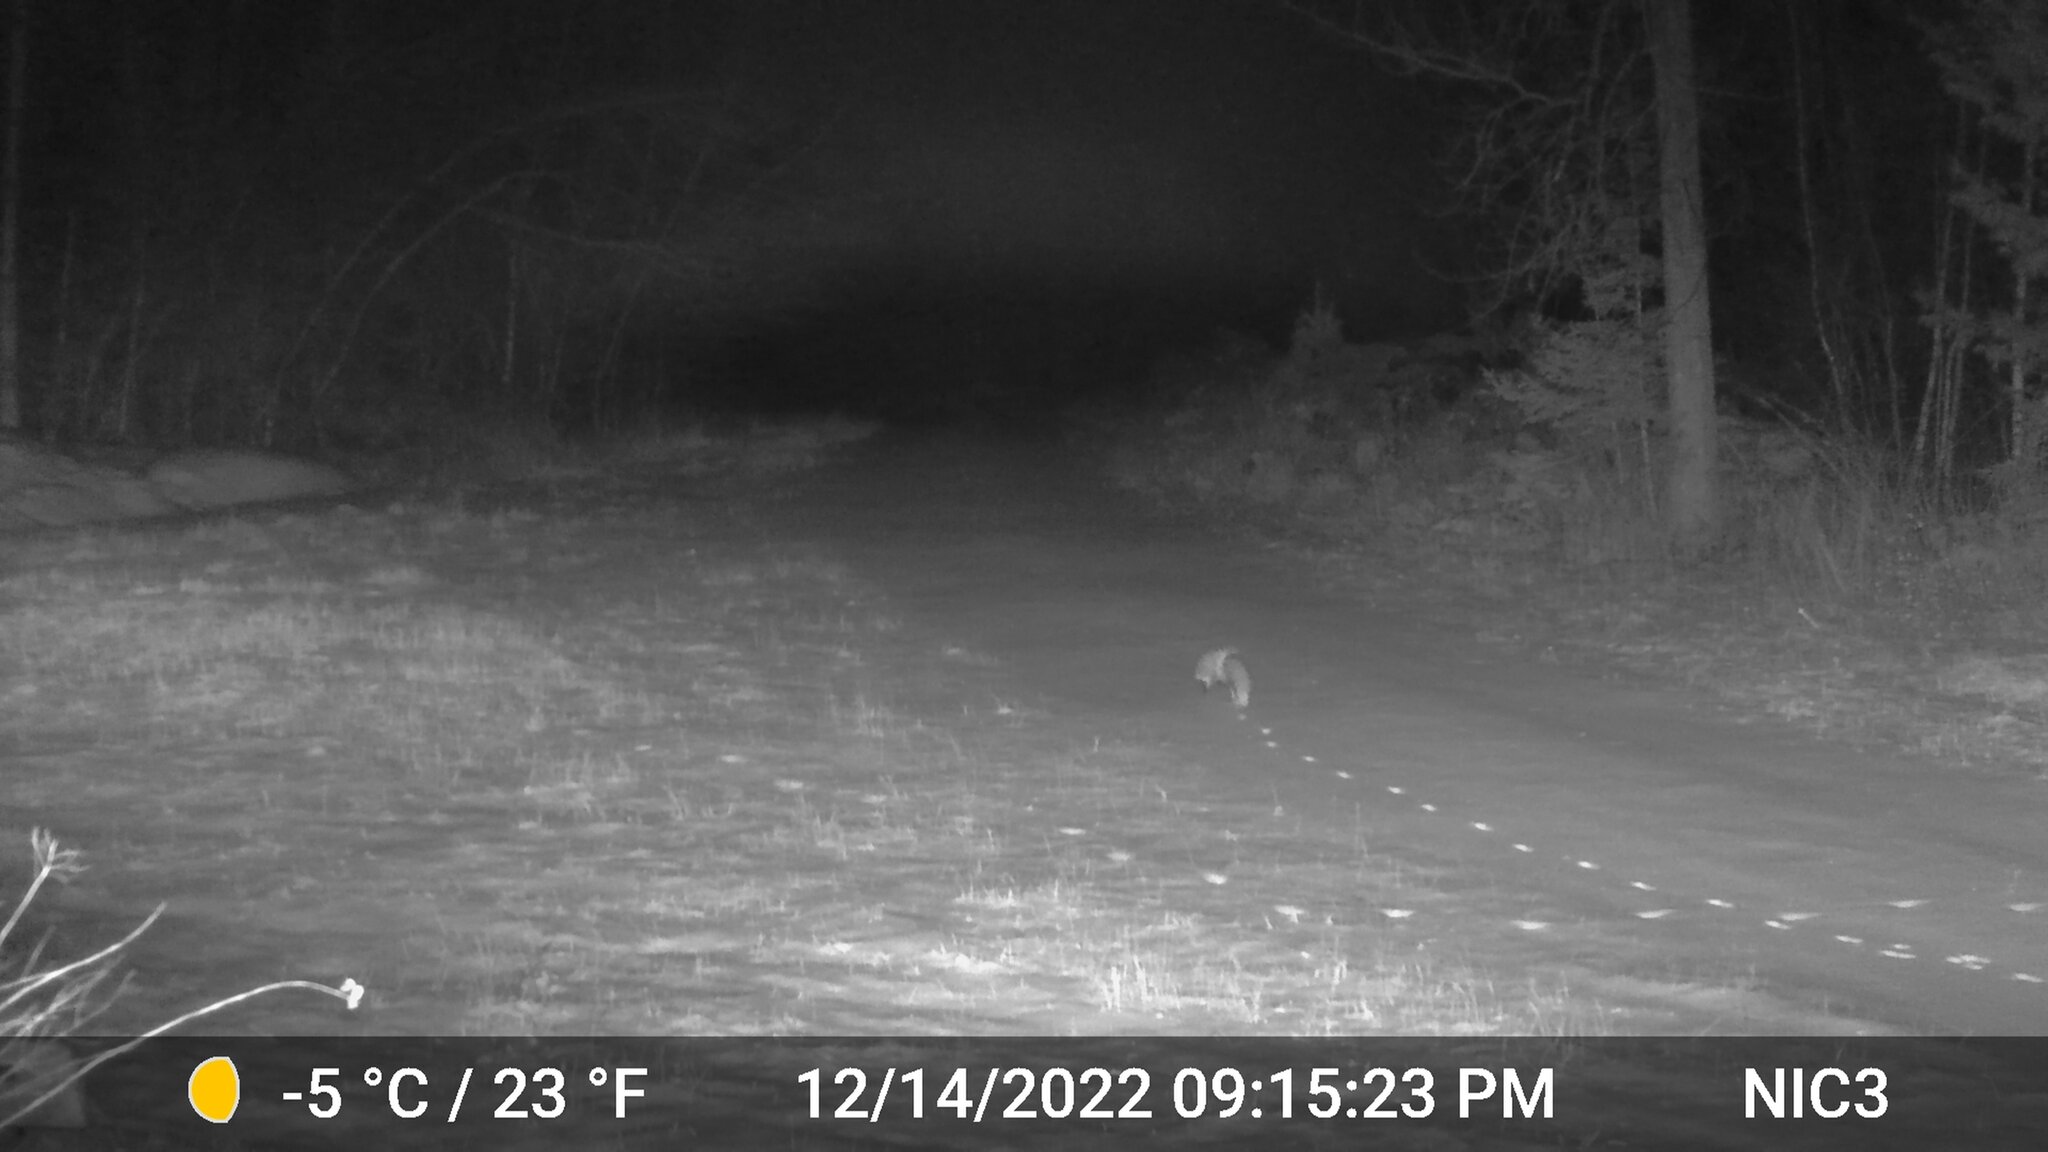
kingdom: Animalia
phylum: Chordata
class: Mammalia
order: Carnivora
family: Canidae
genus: Vulpes
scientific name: Vulpes vulpes
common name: Red fox
